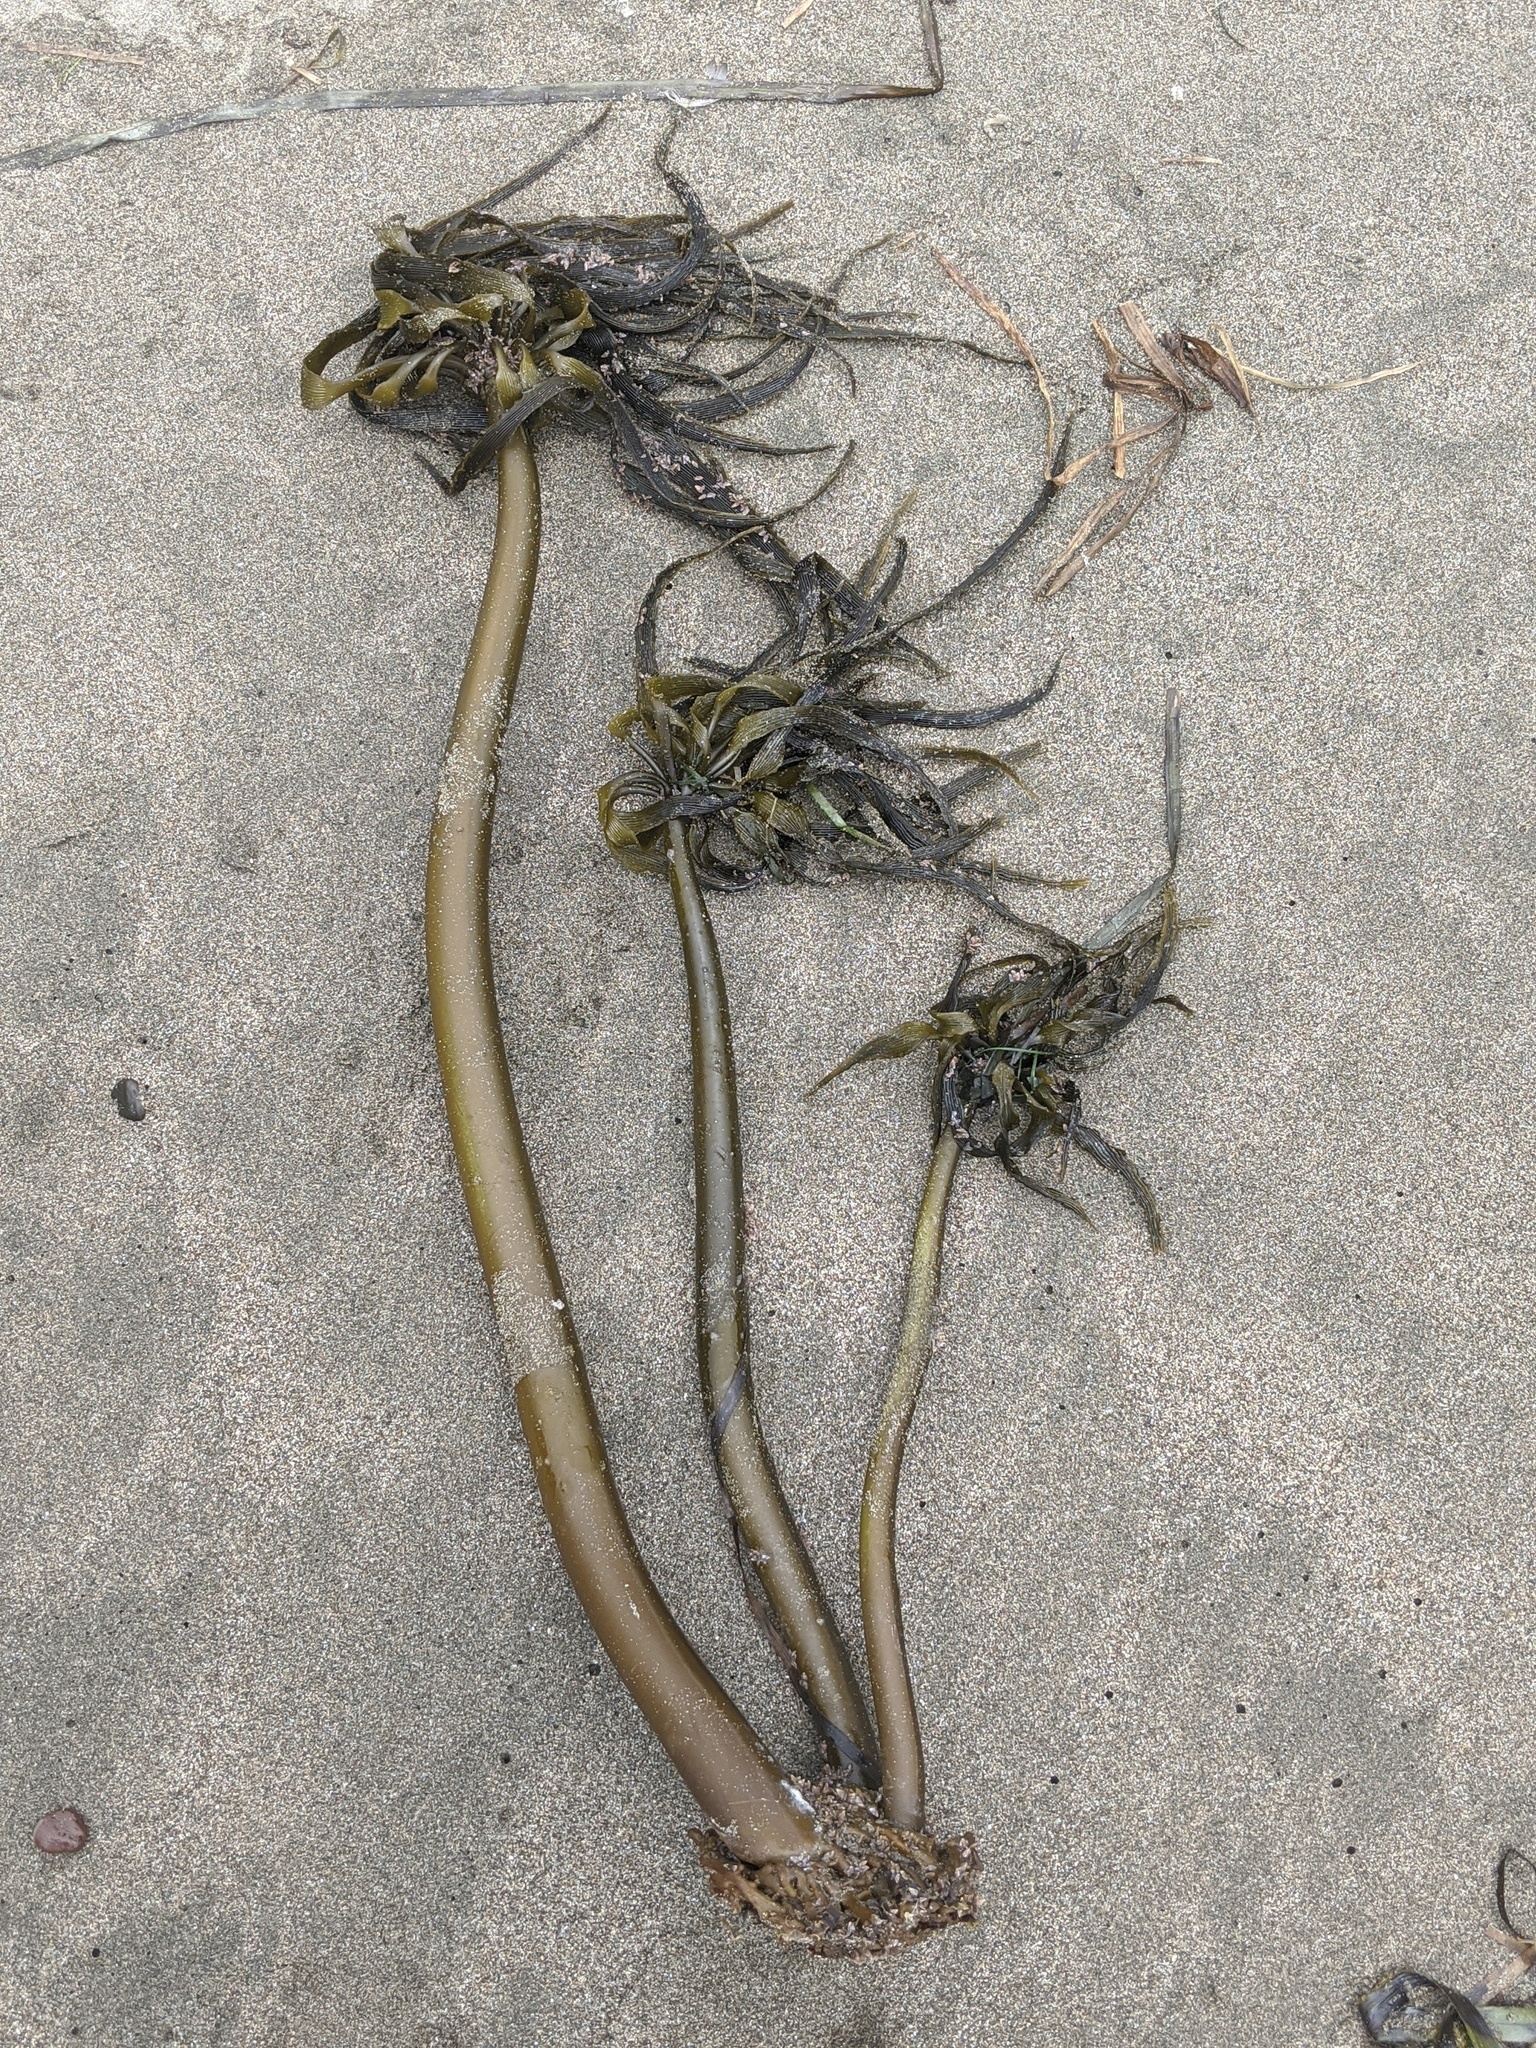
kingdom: Chromista
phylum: Ochrophyta
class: Phaeophyceae
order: Laminariales
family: Laminariaceae
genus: Postelsia
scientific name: Postelsia palmiformis
